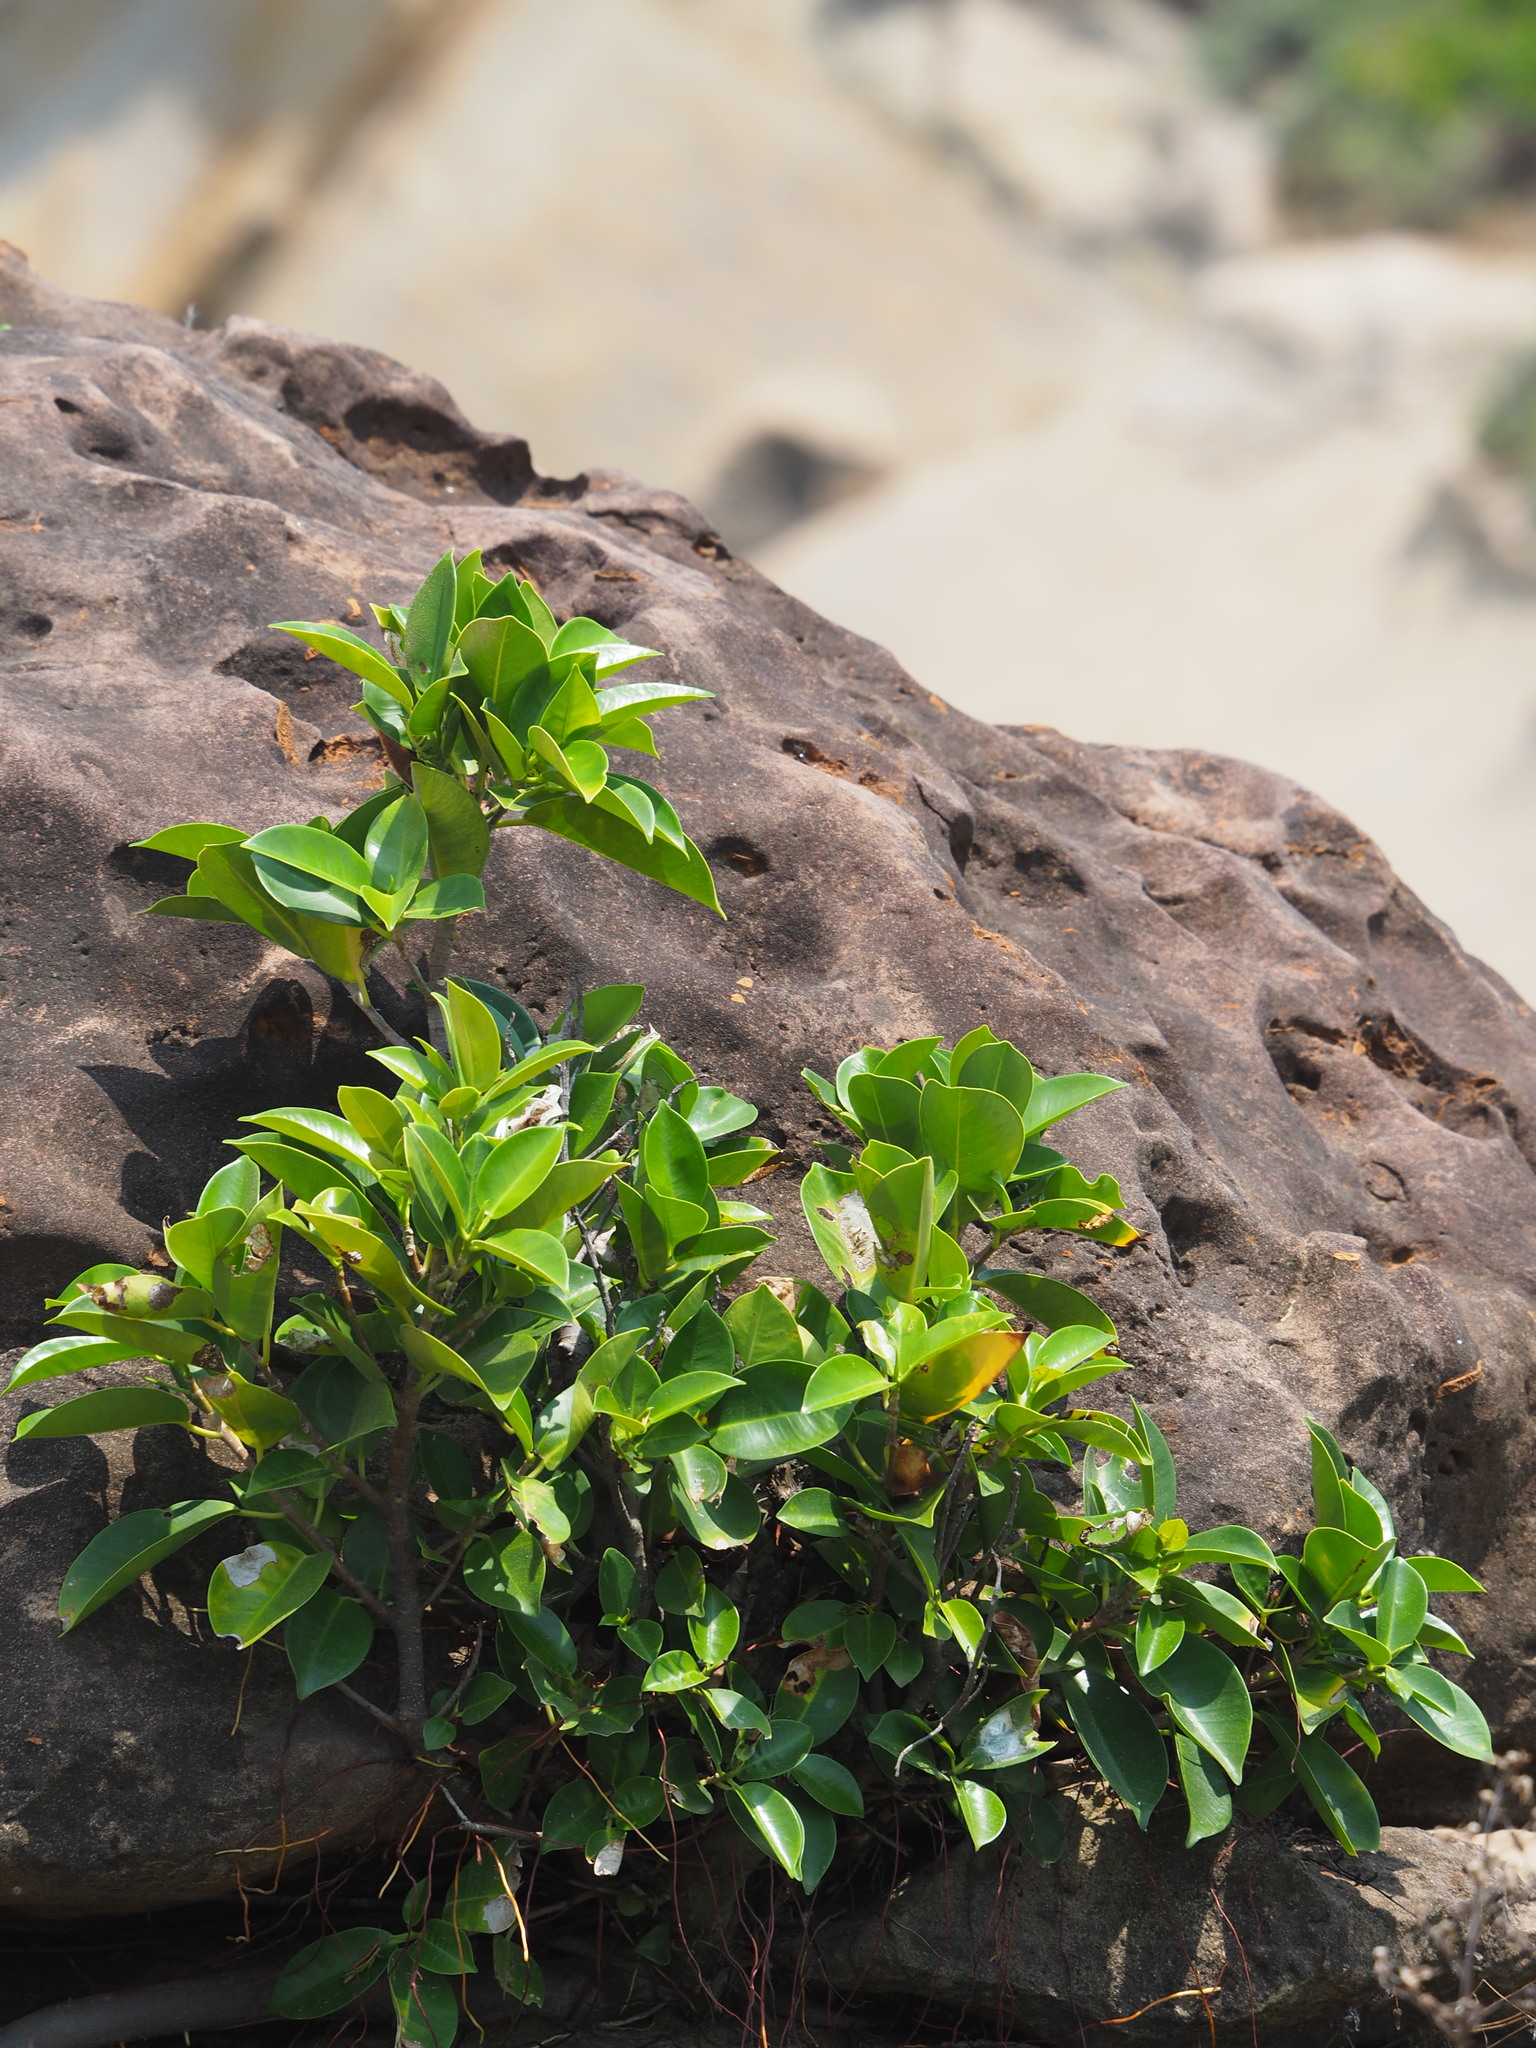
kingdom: Plantae
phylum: Tracheophyta
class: Magnoliopsida
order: Rosales
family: Moraceae
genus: Ficus
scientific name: Ficus microcarpa
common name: Chinese banyan
